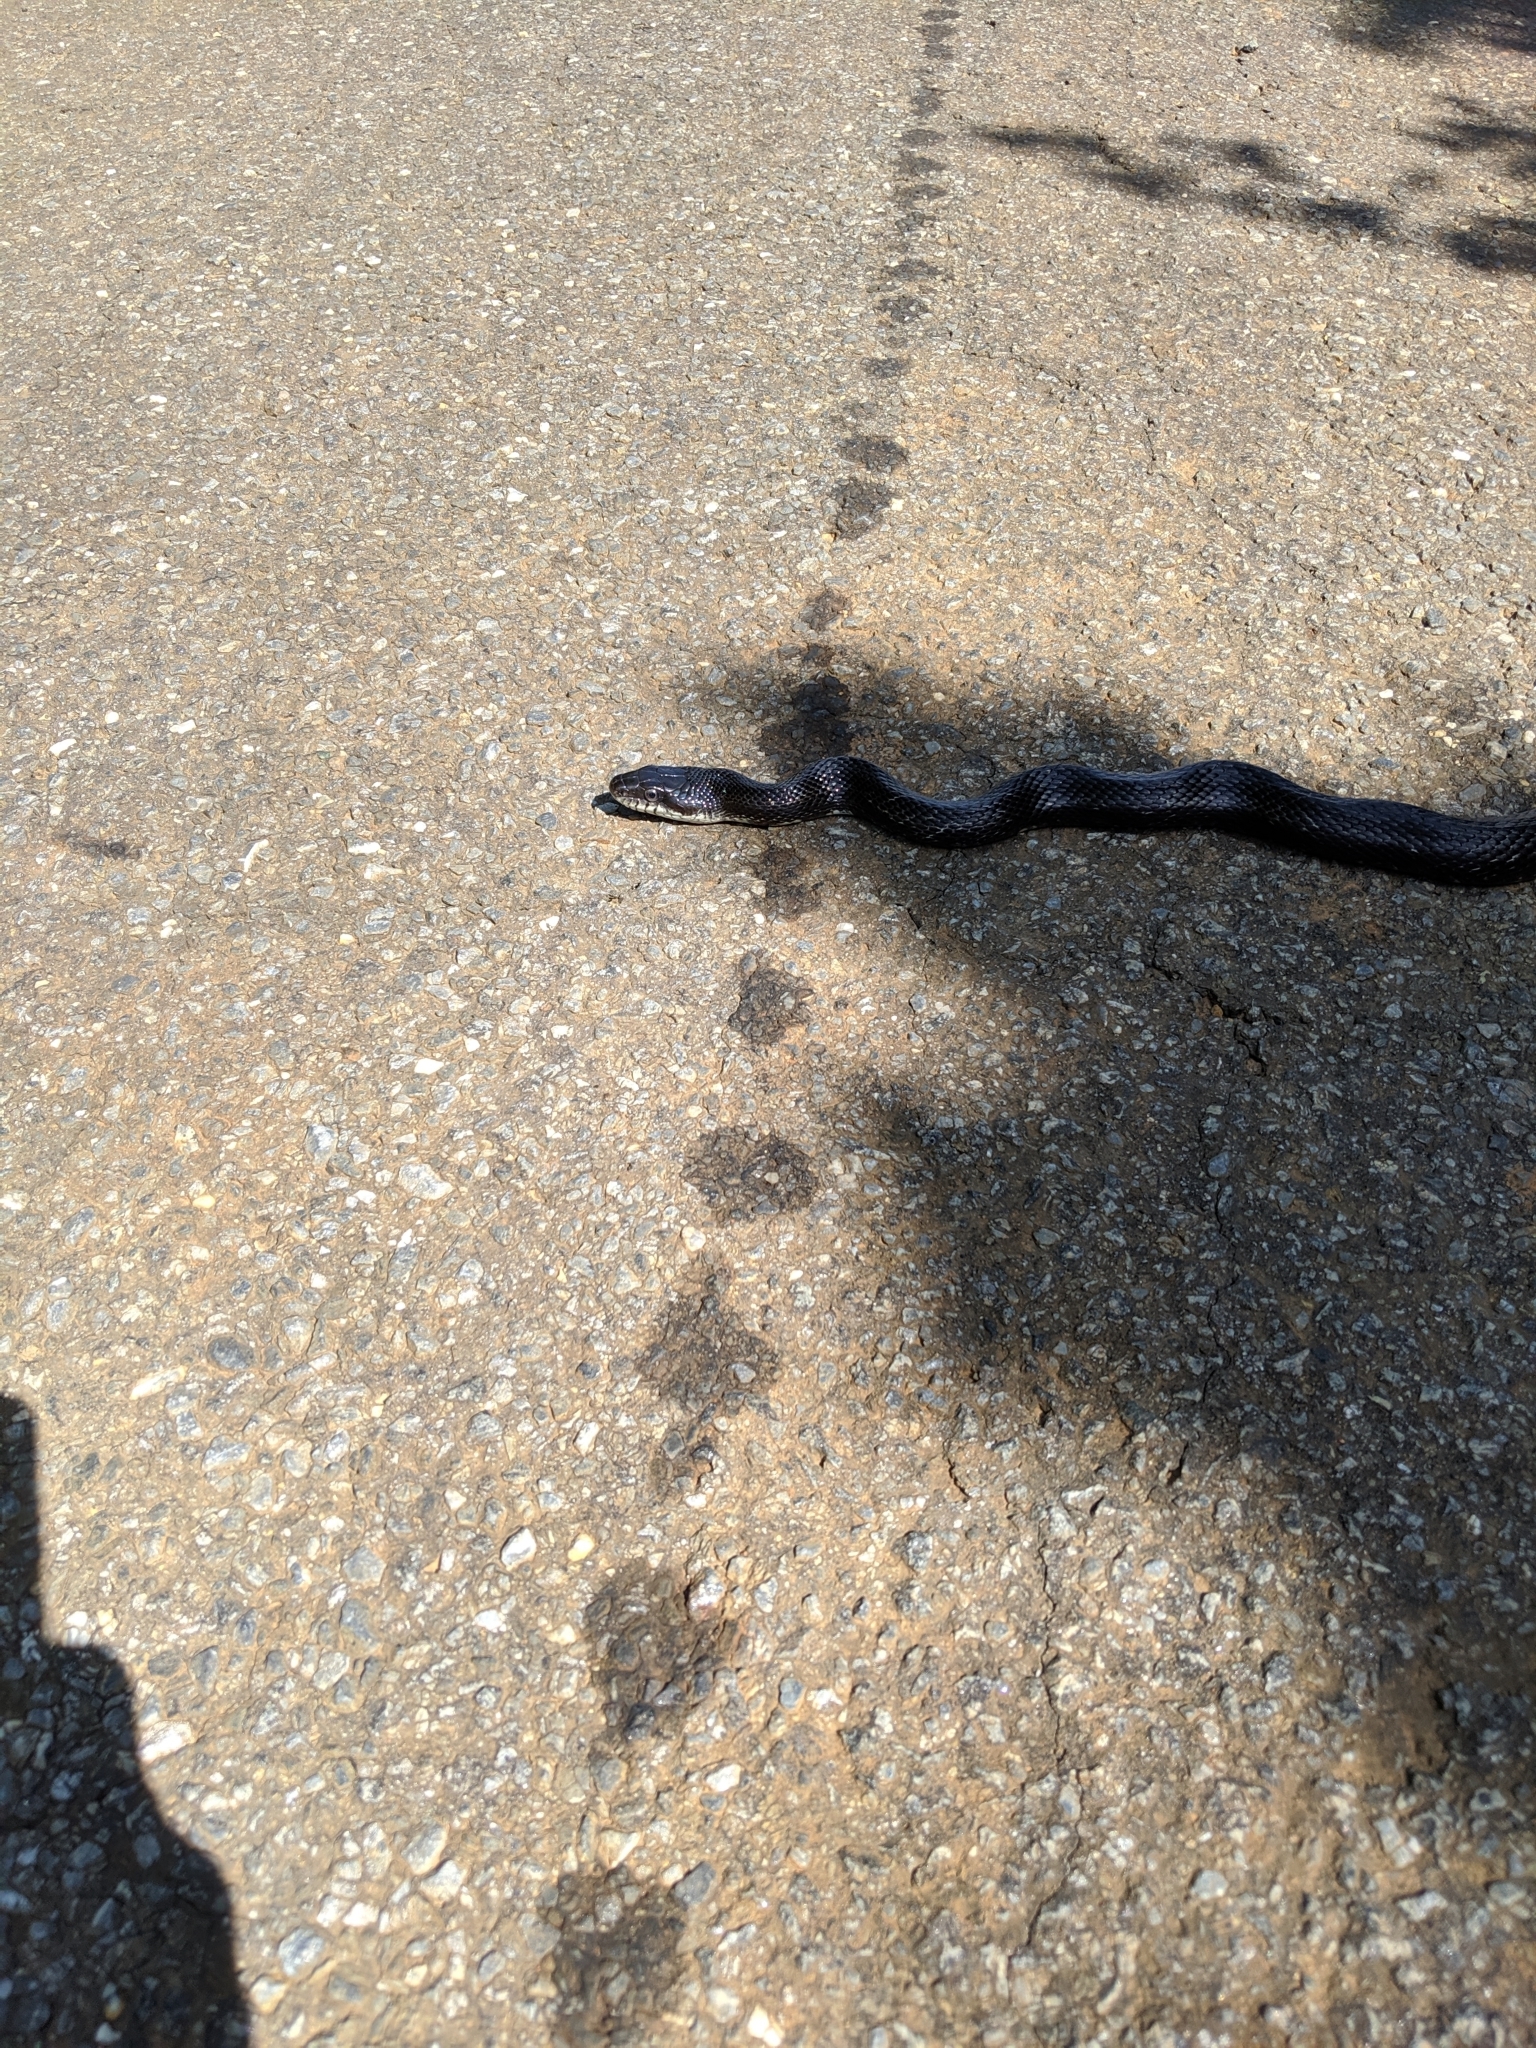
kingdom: Animalia
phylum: Chordata
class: Squamata
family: Colubridae
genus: Pantherophis
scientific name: Pantherophis alleghaniensis
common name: Eastern rat snake
